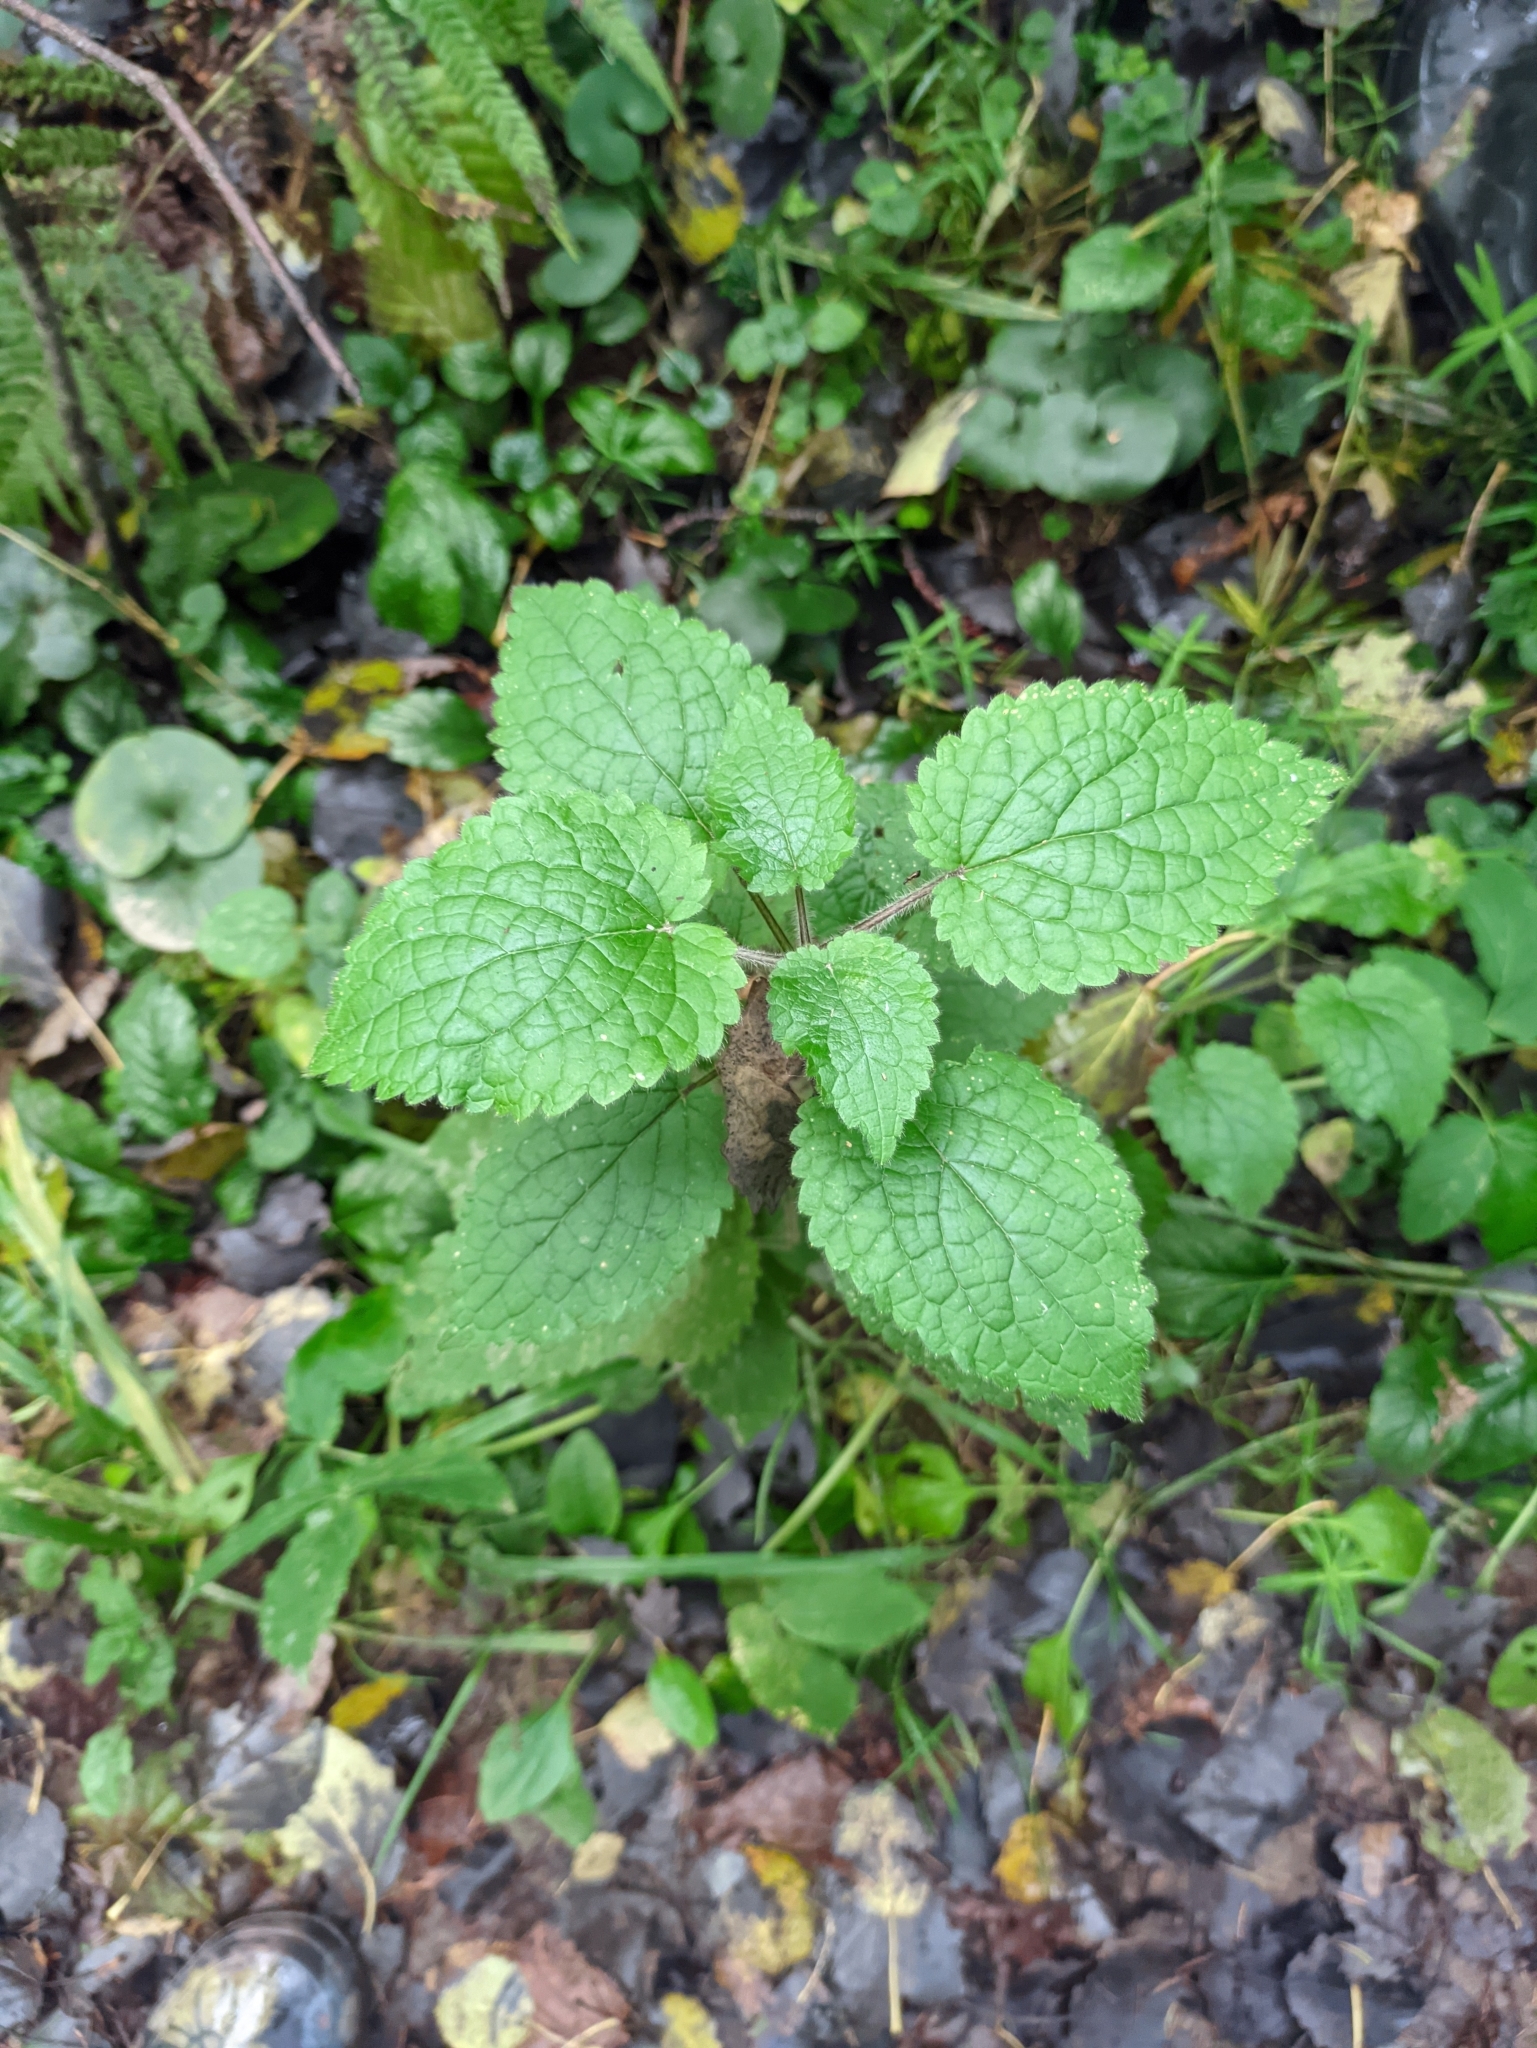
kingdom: Plantae
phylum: Tracheophyta
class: Magnoliopsida
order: Lamiales
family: Lamiaceae
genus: Stachys
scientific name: Stachys sylvatica
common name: Hedge woundwort
